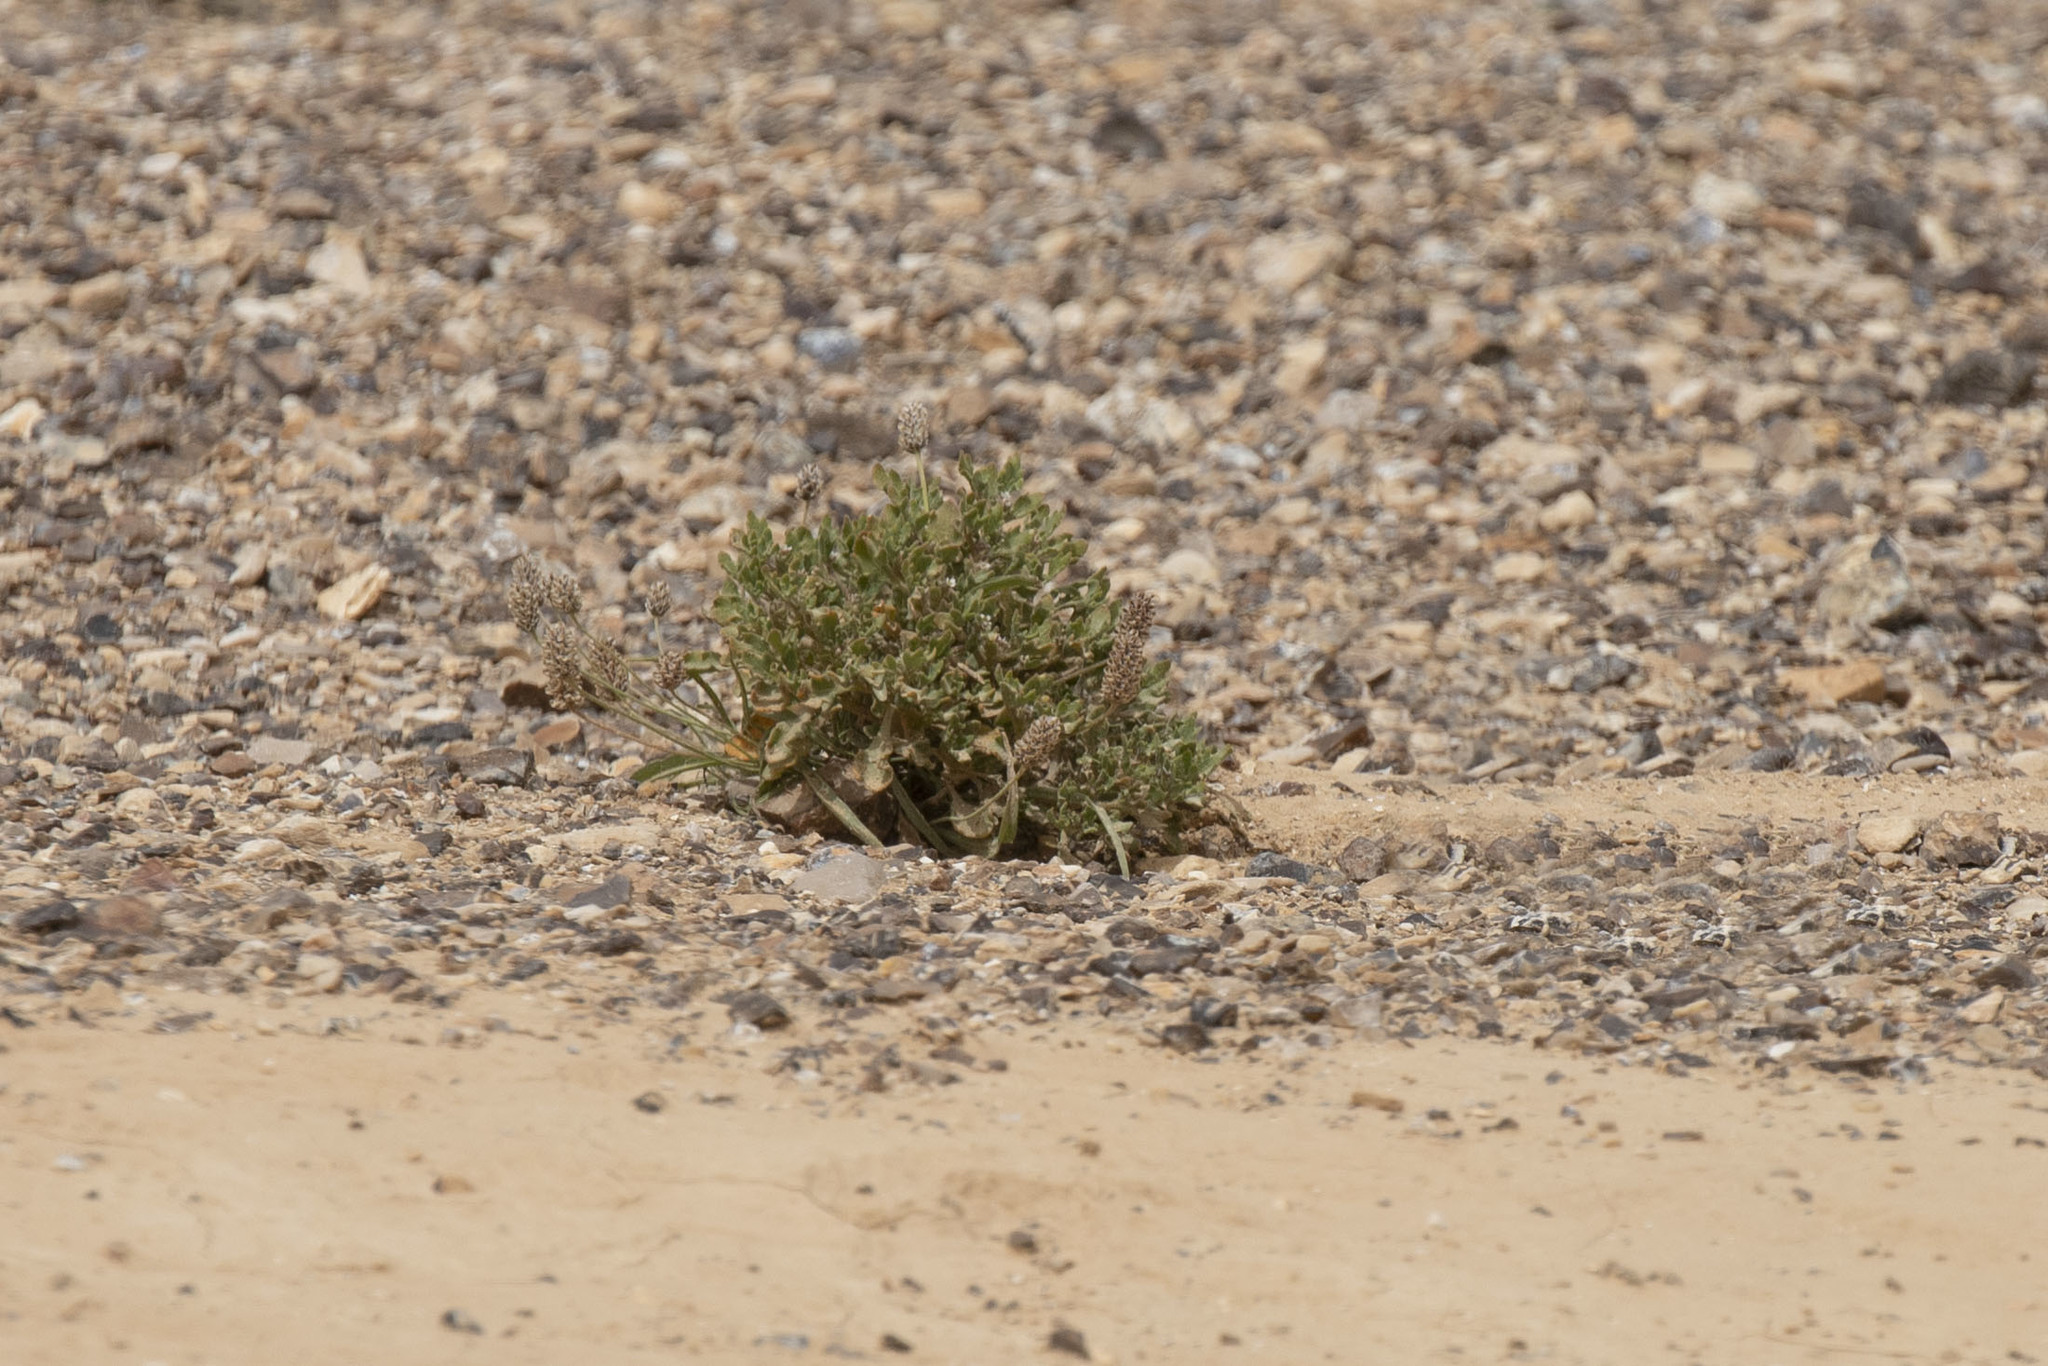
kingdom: Plantae
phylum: Tracheophyta
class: Magnoliopsida
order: Brassicales
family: Brassicaceae
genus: Anastatica
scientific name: Anastatica hierochuntica
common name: Rose-of-jericho
